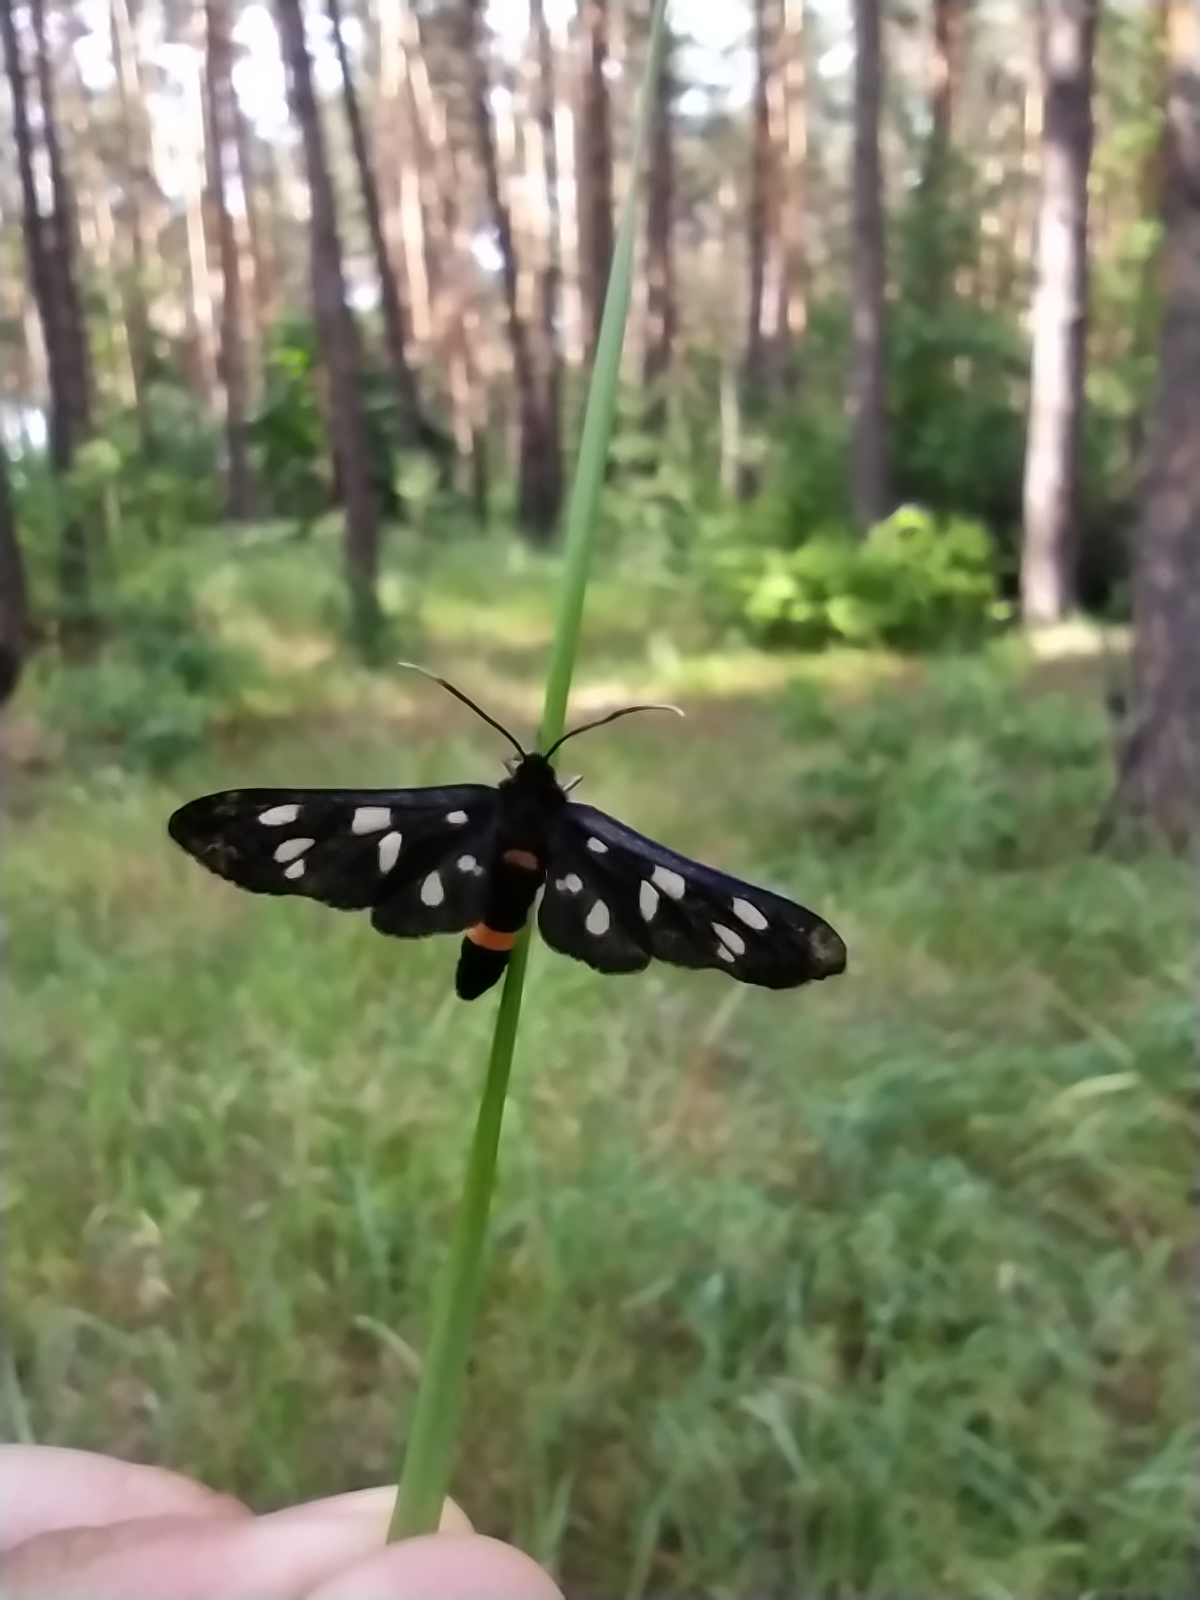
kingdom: Animalia
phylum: Arthropoda
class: Insecta
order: Lepidoptera
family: Erebidae
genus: Amata
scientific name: Amata phegea
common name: Nine-spotted
